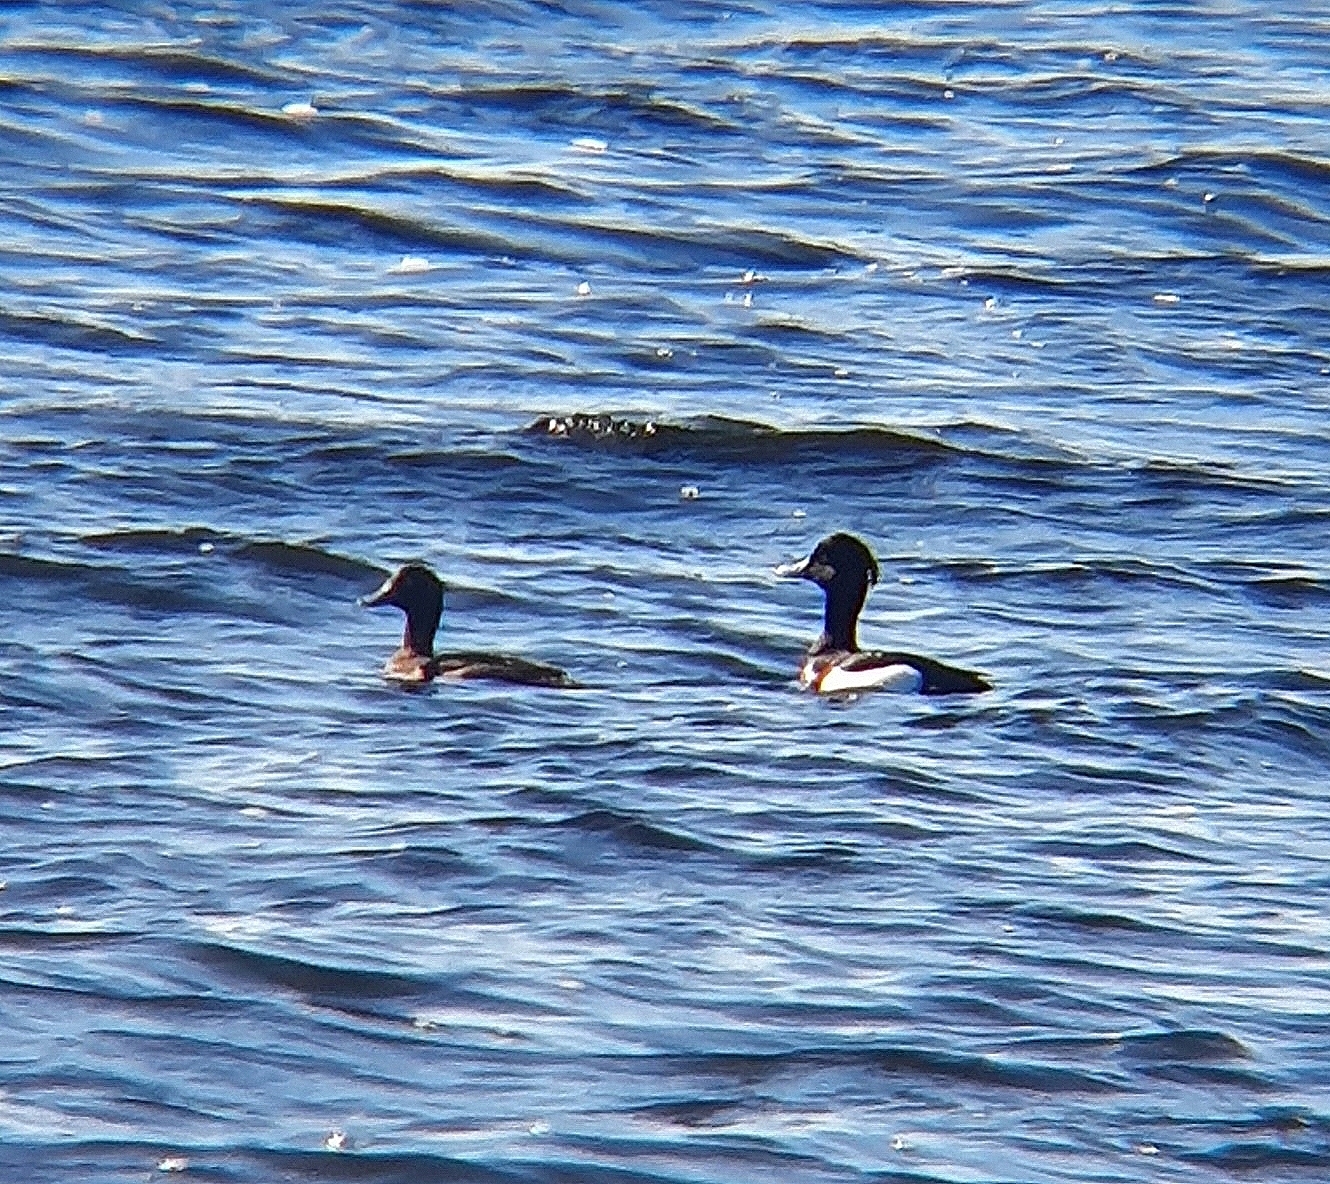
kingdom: Animalia
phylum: Chordata
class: Aves
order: Anseriformes
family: Anatidae
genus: Aythya
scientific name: Aythya fuligula
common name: Tufted duck
